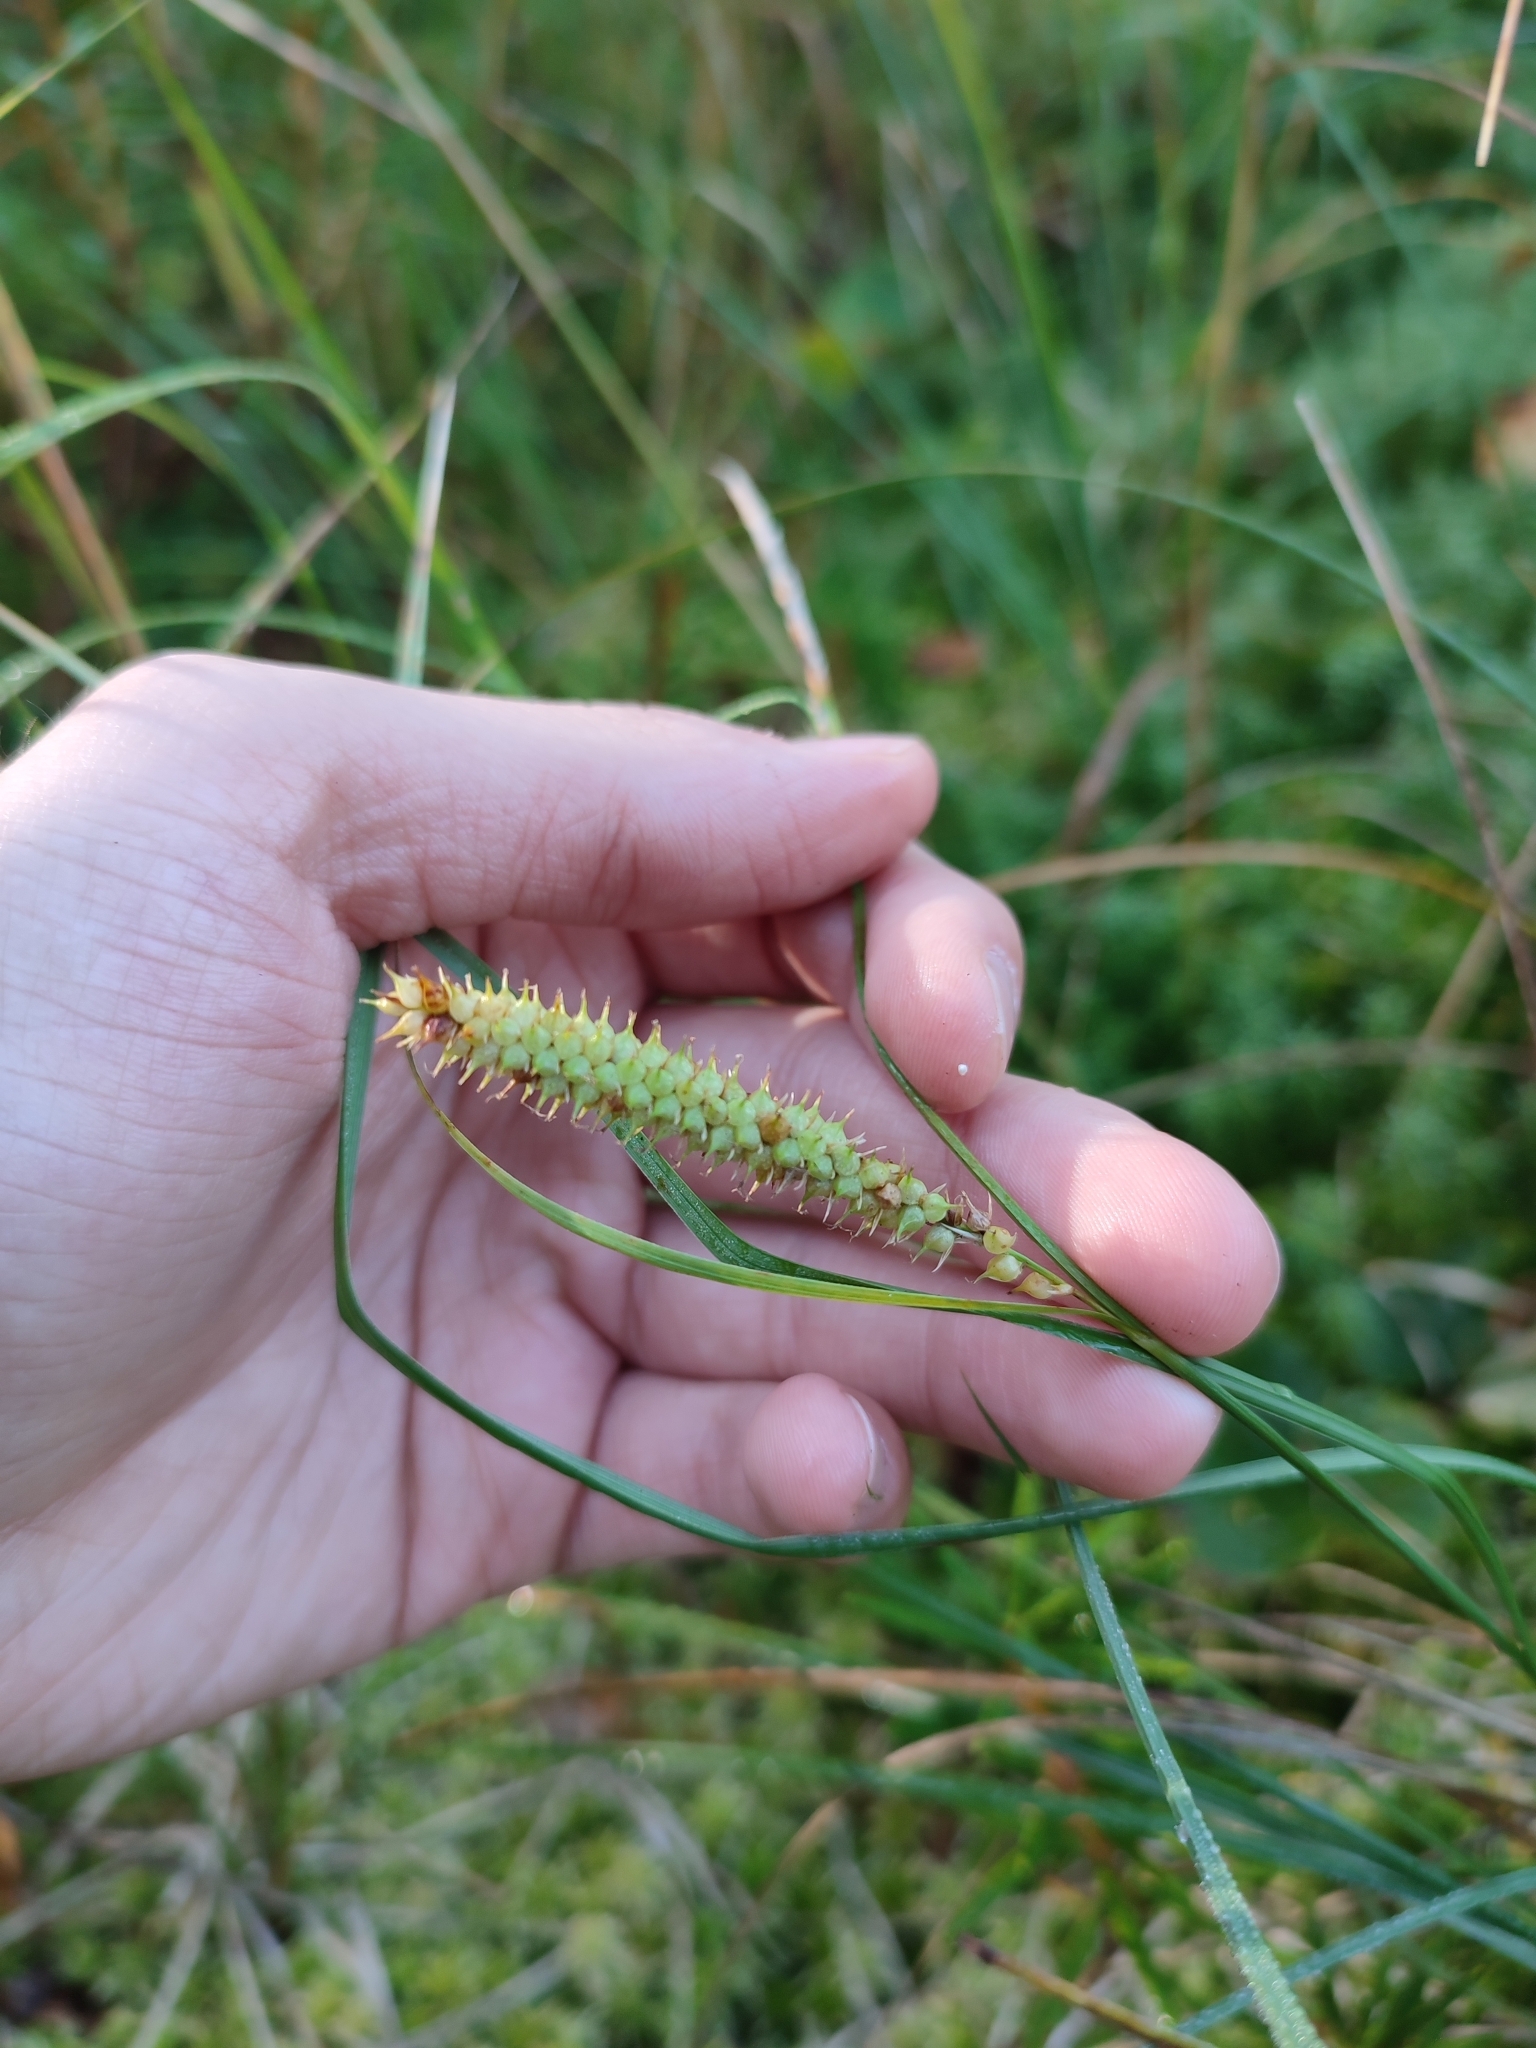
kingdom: Plantae
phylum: Tracheophyta
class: Liliopsida
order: Poales
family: Cyperaceae
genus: Carex
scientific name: Carex rostrata
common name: Bottle sedge
